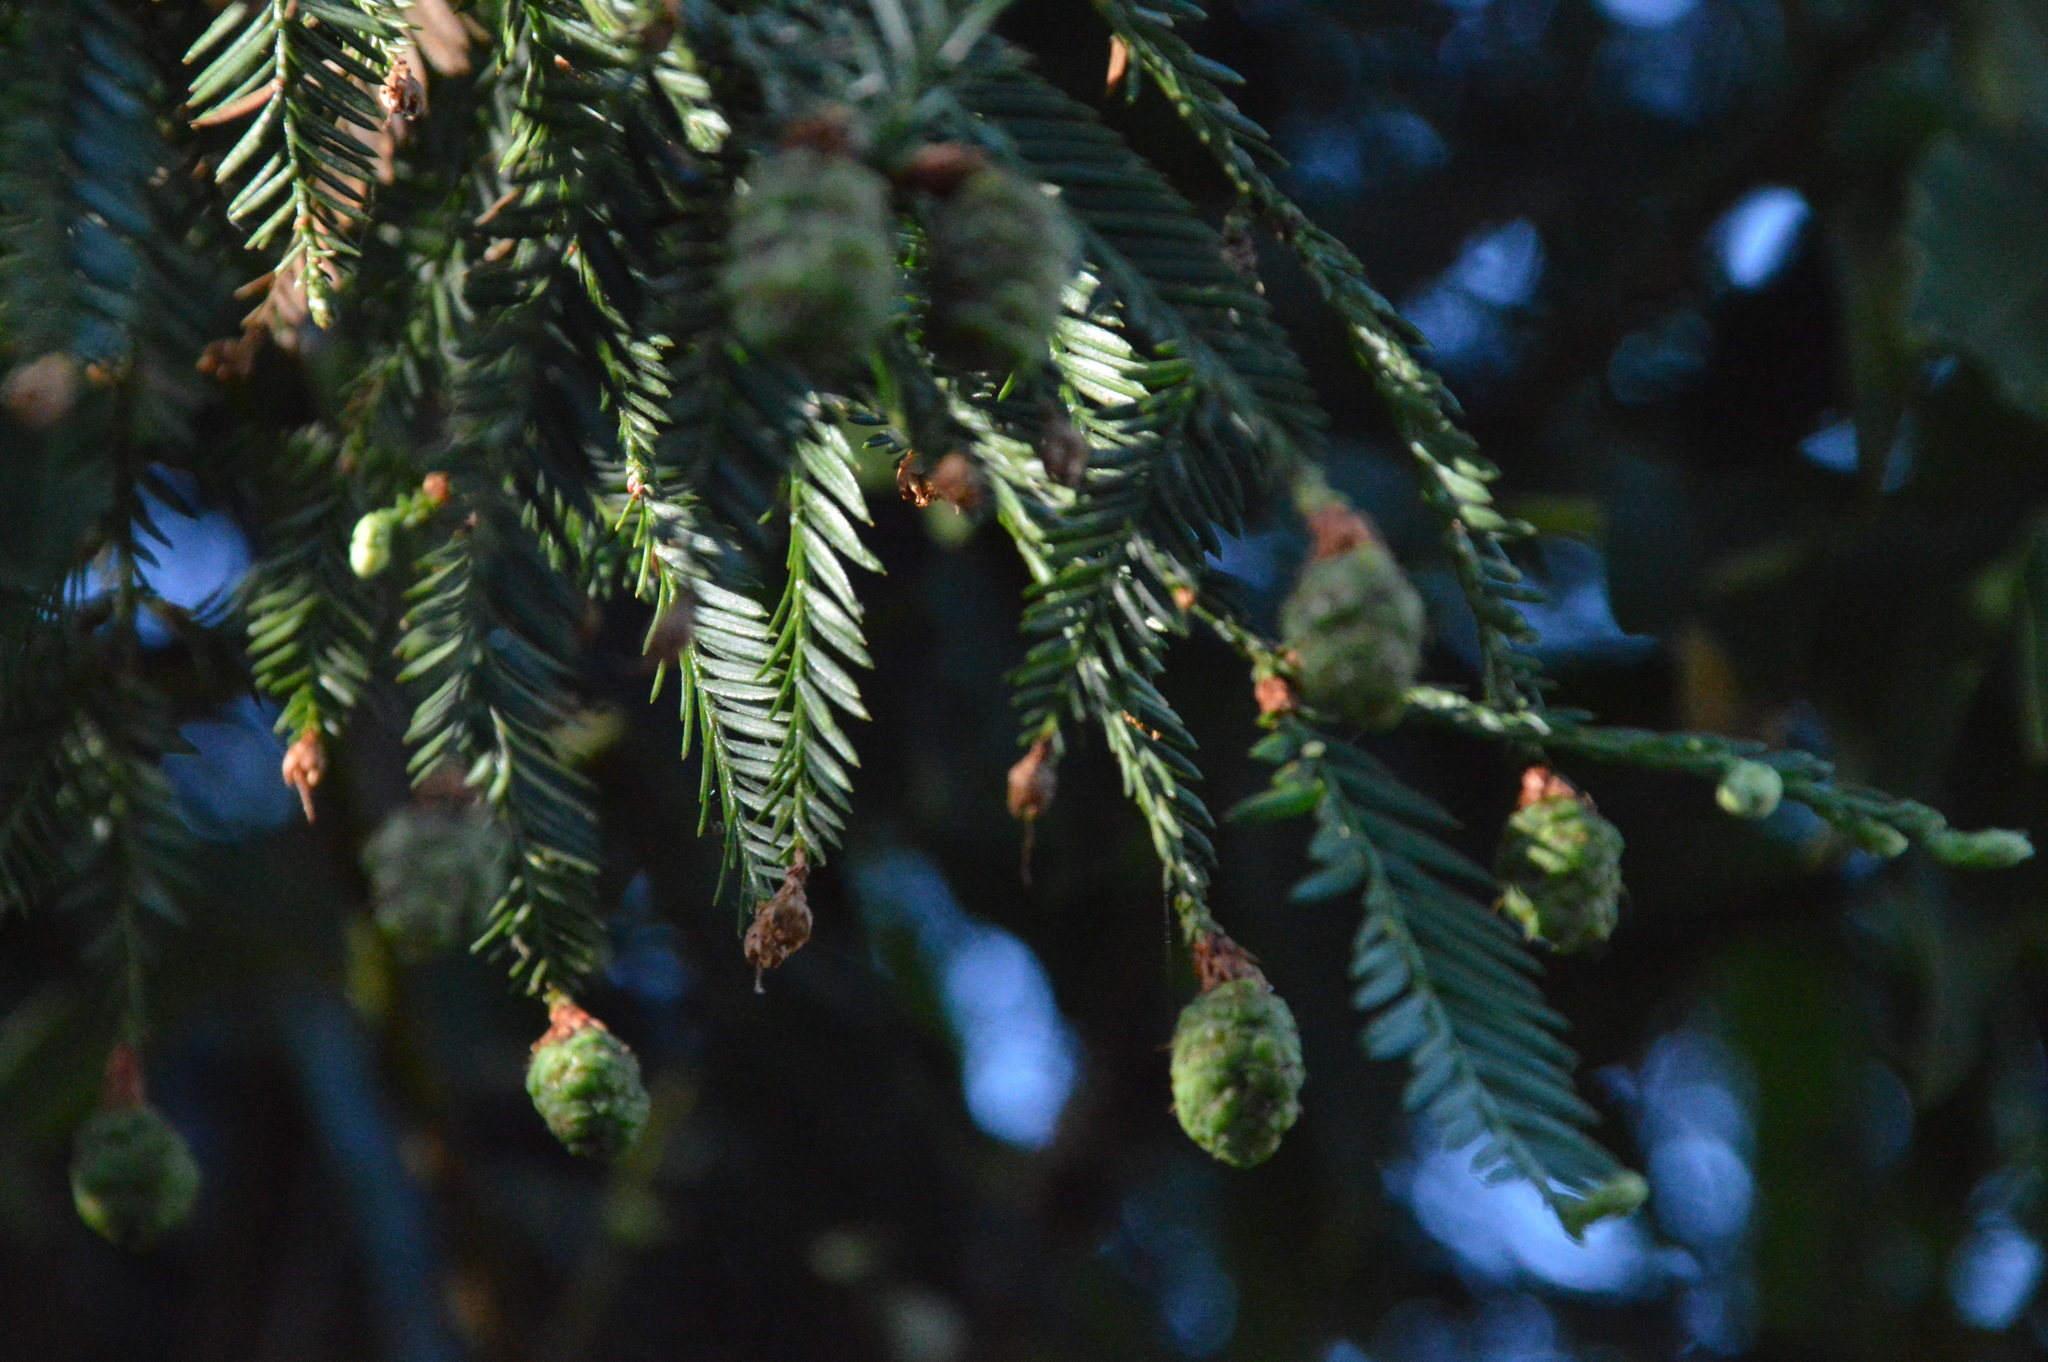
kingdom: Plantae
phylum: Tracheophyta
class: Pinopsida
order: Pinales
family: Cupressaceae
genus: Sequoia
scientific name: Sequoia sempervirens
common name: Coast redwood
